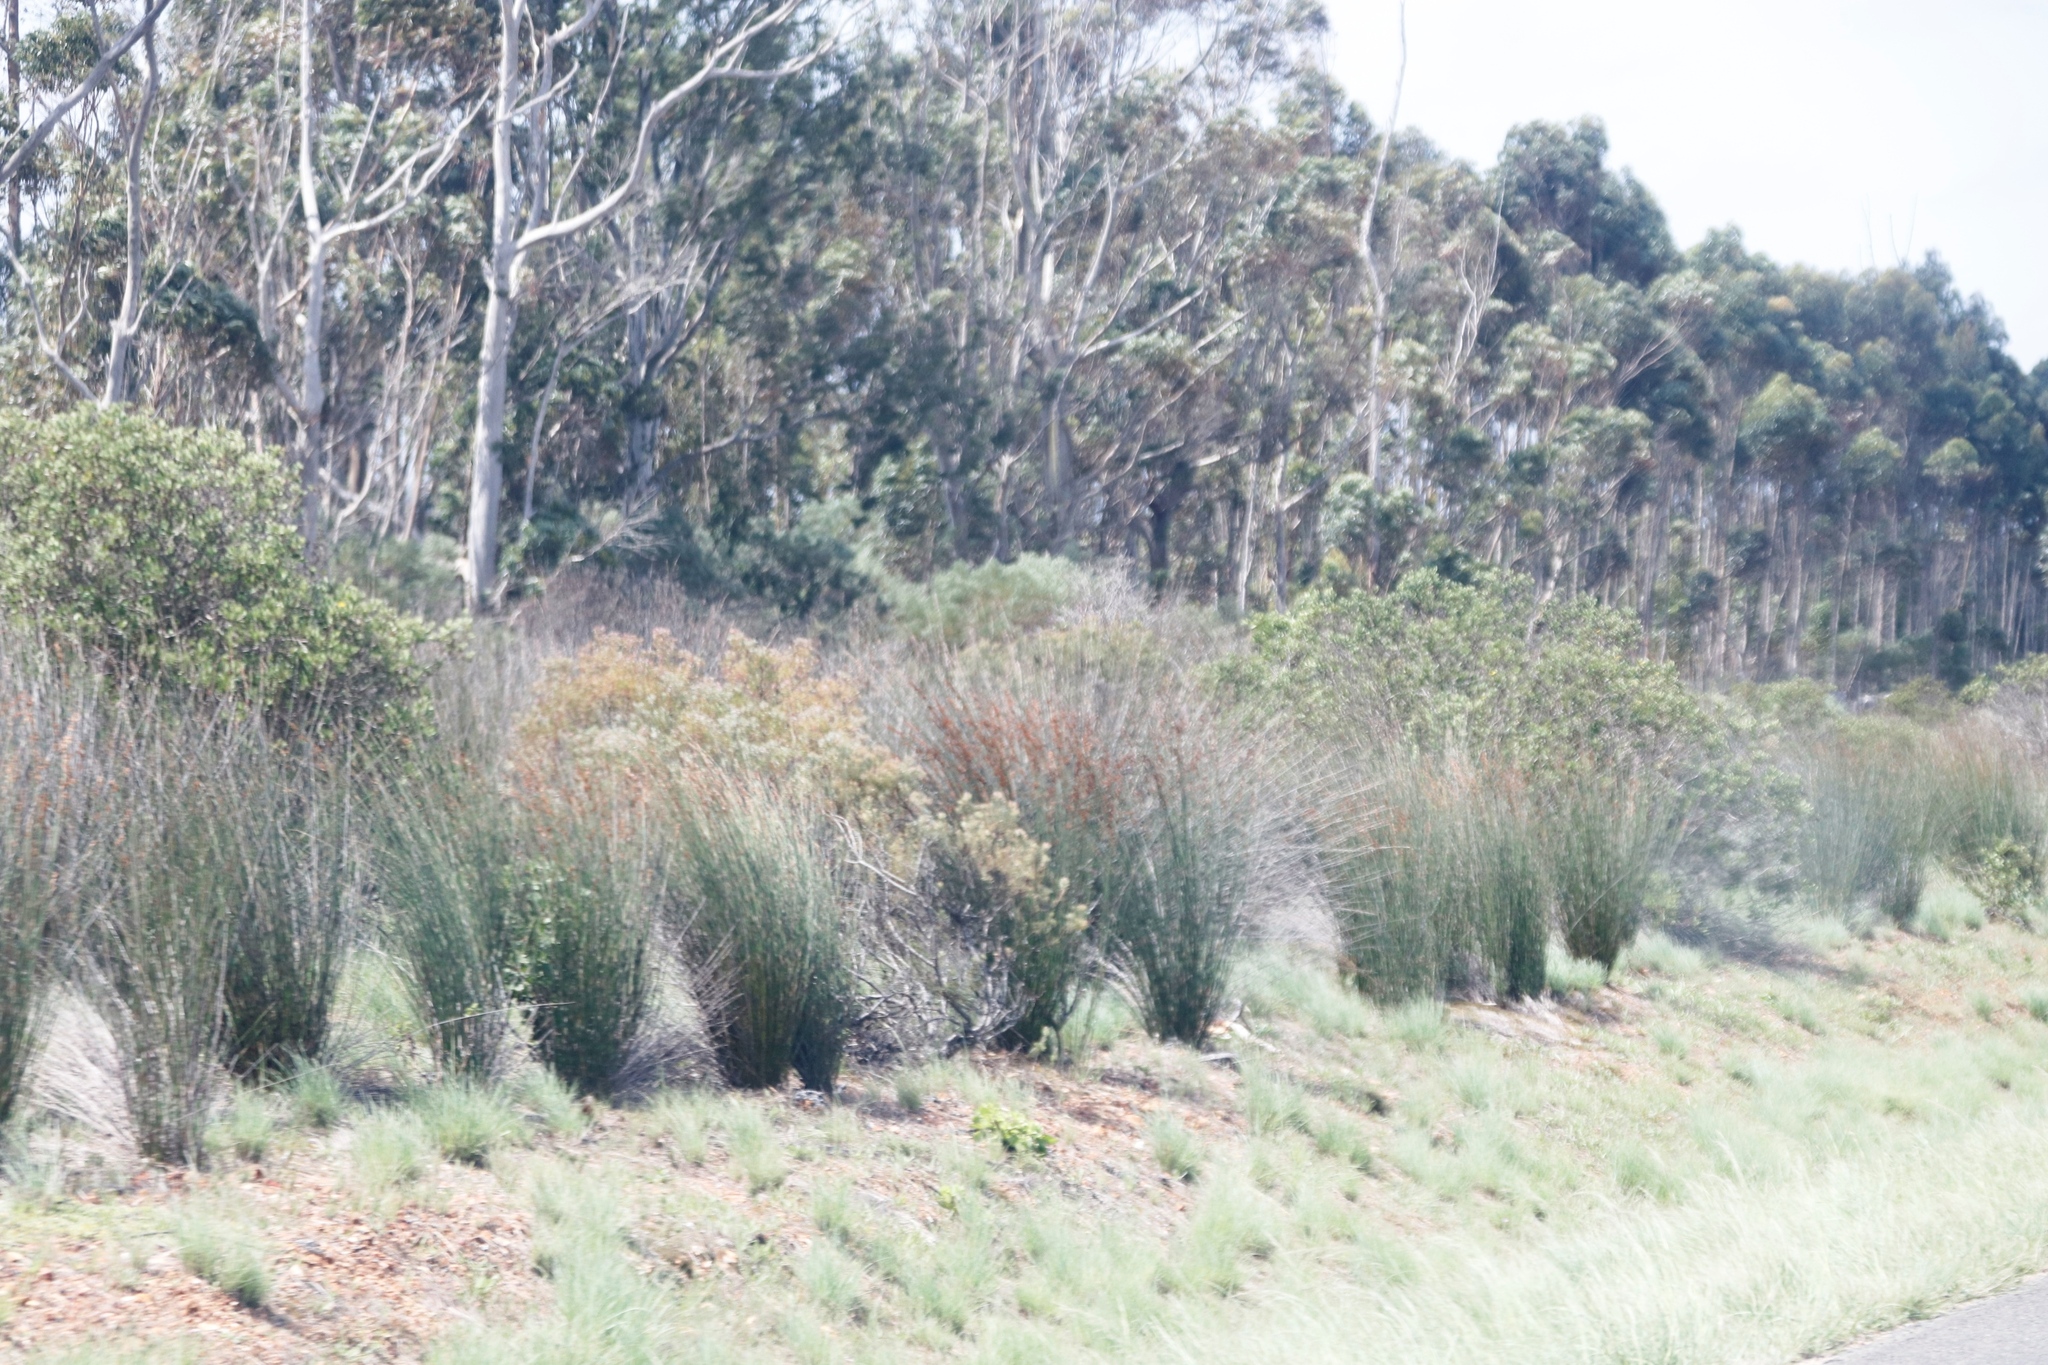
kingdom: Plantae
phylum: Tracheophyta
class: Liliopsida
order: Poales
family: Restionaceae
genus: Thamnochortus
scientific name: Thamnochortus insignis
